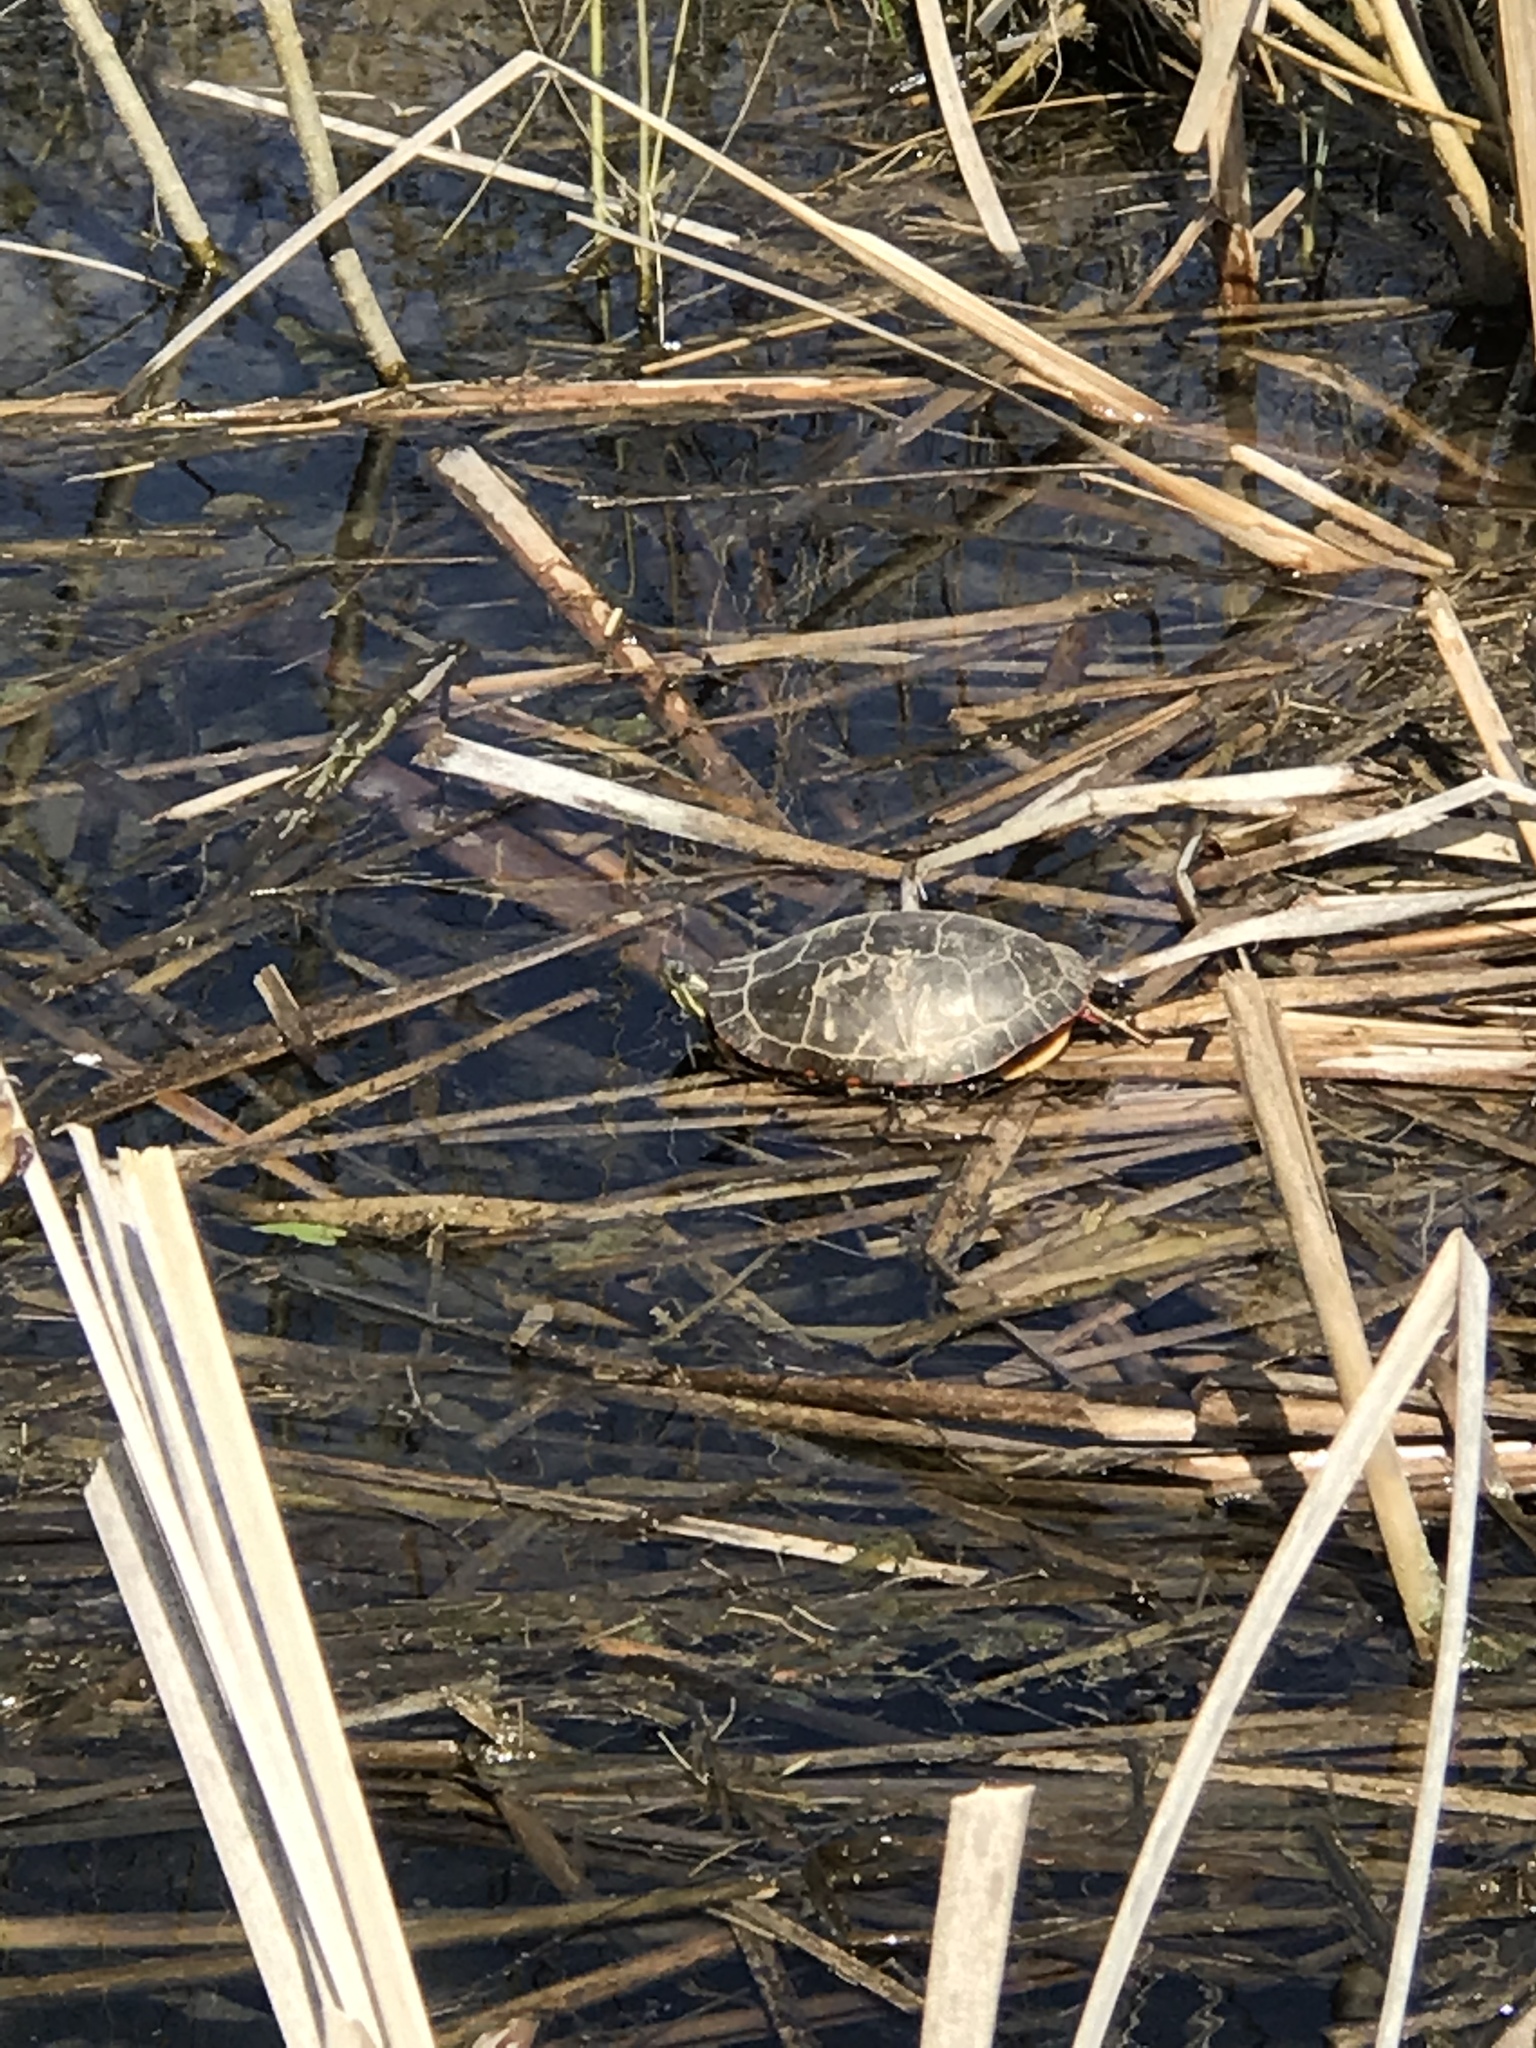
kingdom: Animalia
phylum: Chordata
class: Testudines
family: Emydidae
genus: Chrysemys
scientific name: Chrysemys picta
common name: Painted turtle
